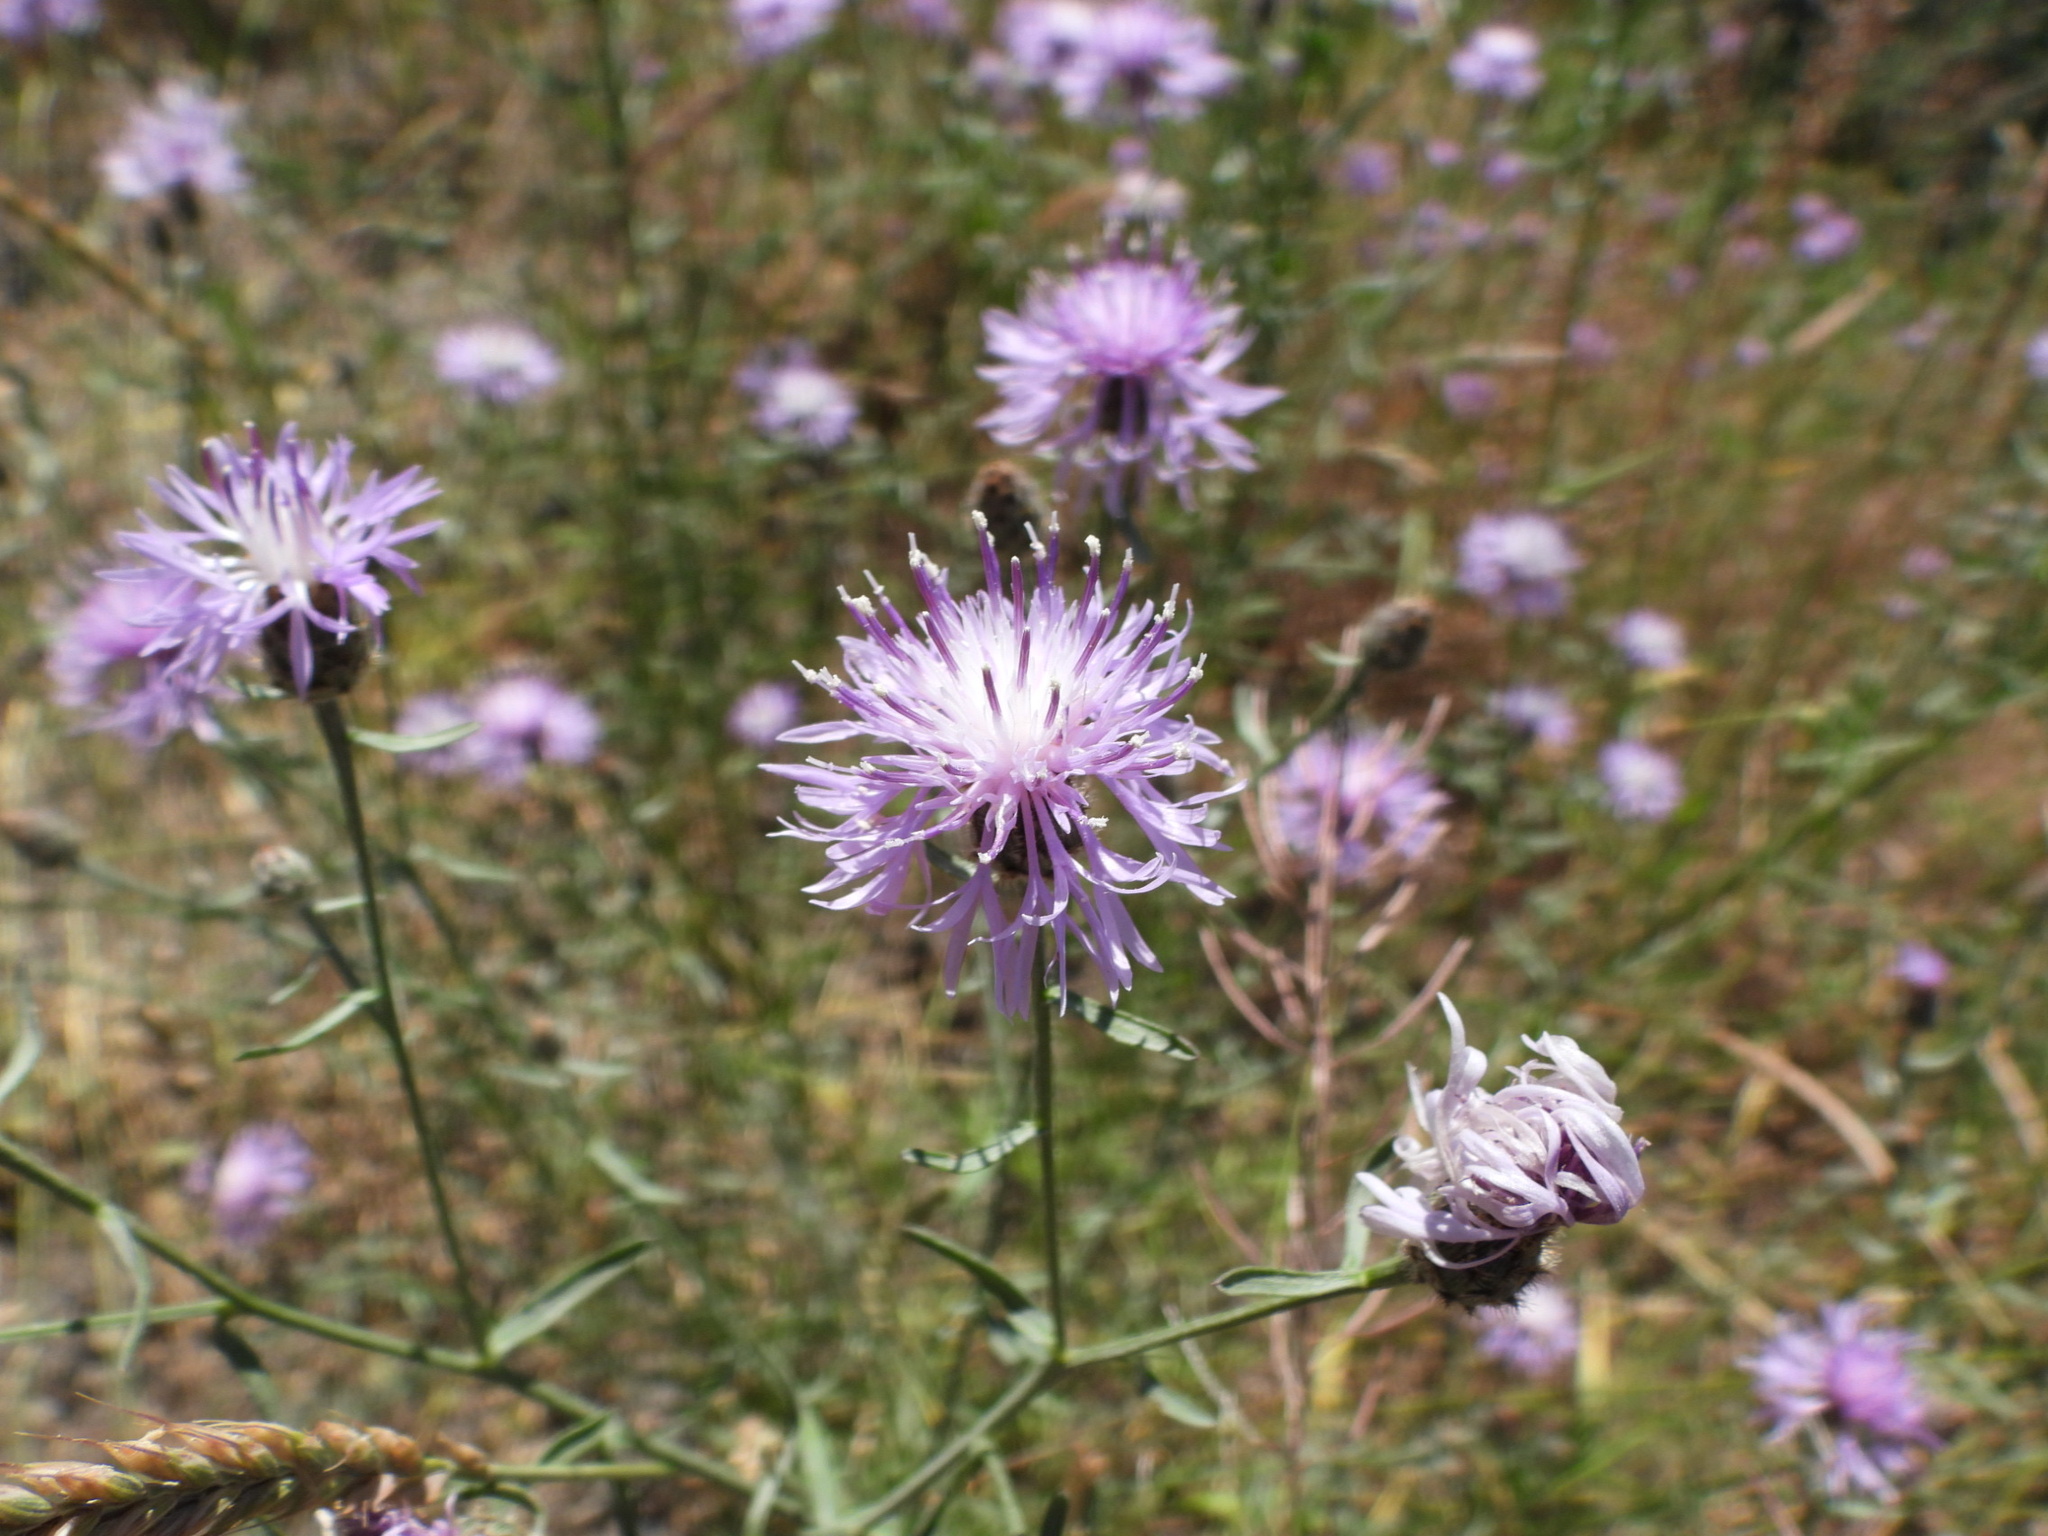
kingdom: Plantae
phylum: Tracheophyta
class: Magnoliopsida
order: Asterales
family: Asteraceae
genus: Centaurea
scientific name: Centaurea stoebe
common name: Spotted knapweed
